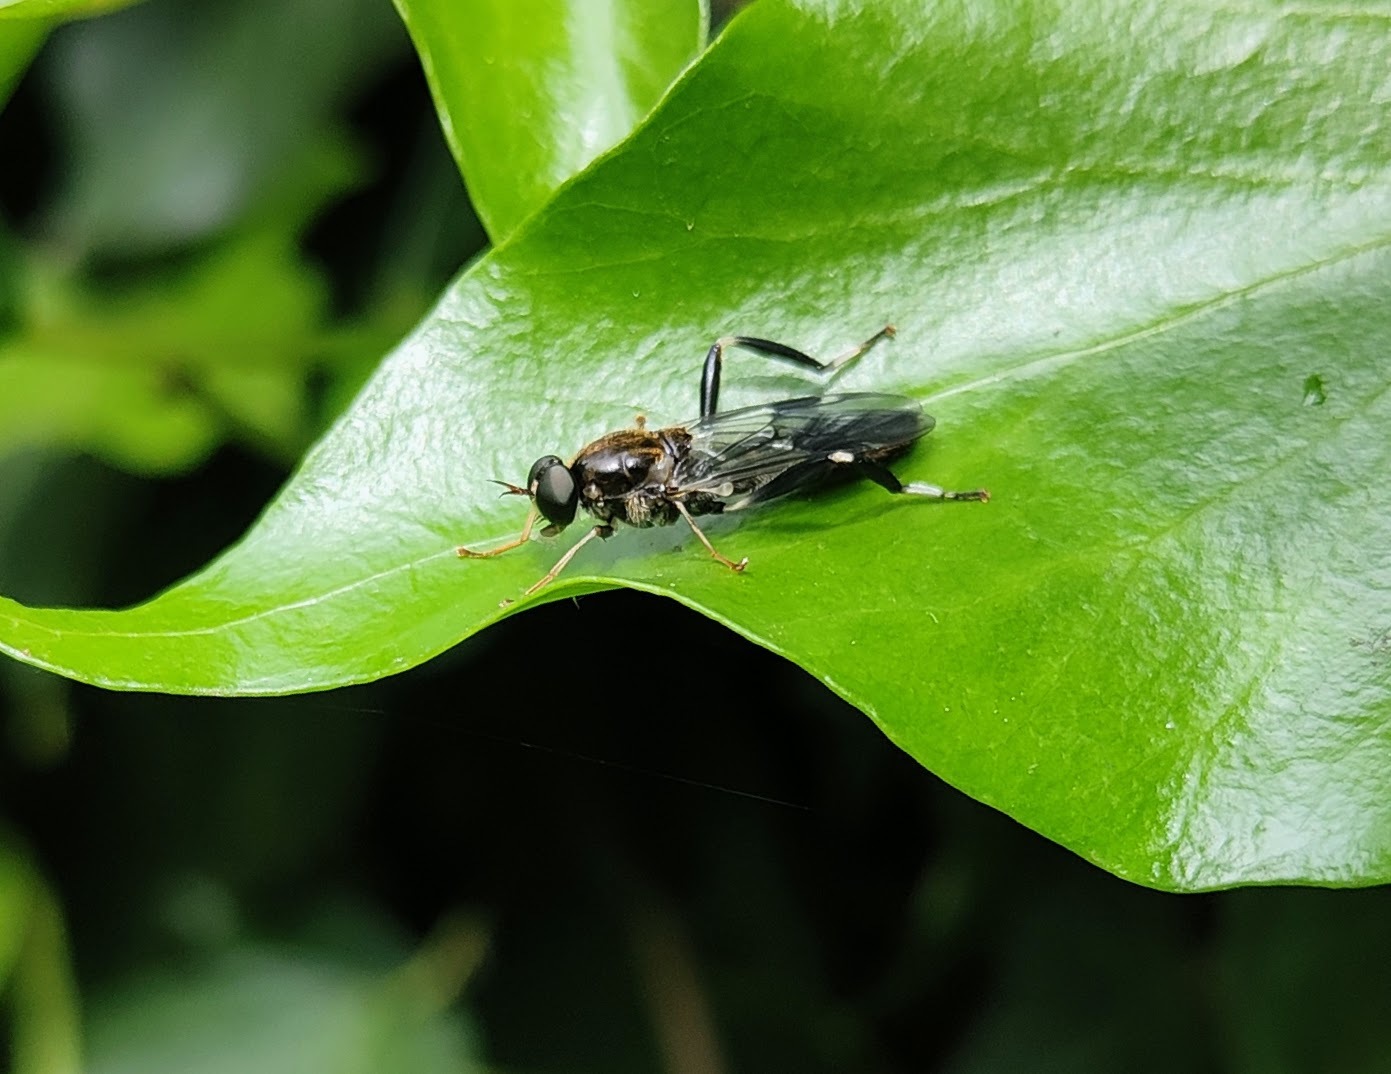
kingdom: Animalia
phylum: Arthropoda
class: Insecta
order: Diptera
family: Stratiomyidae
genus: Exaireta
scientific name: Exaireta spinigera
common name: Blue soldier fly
